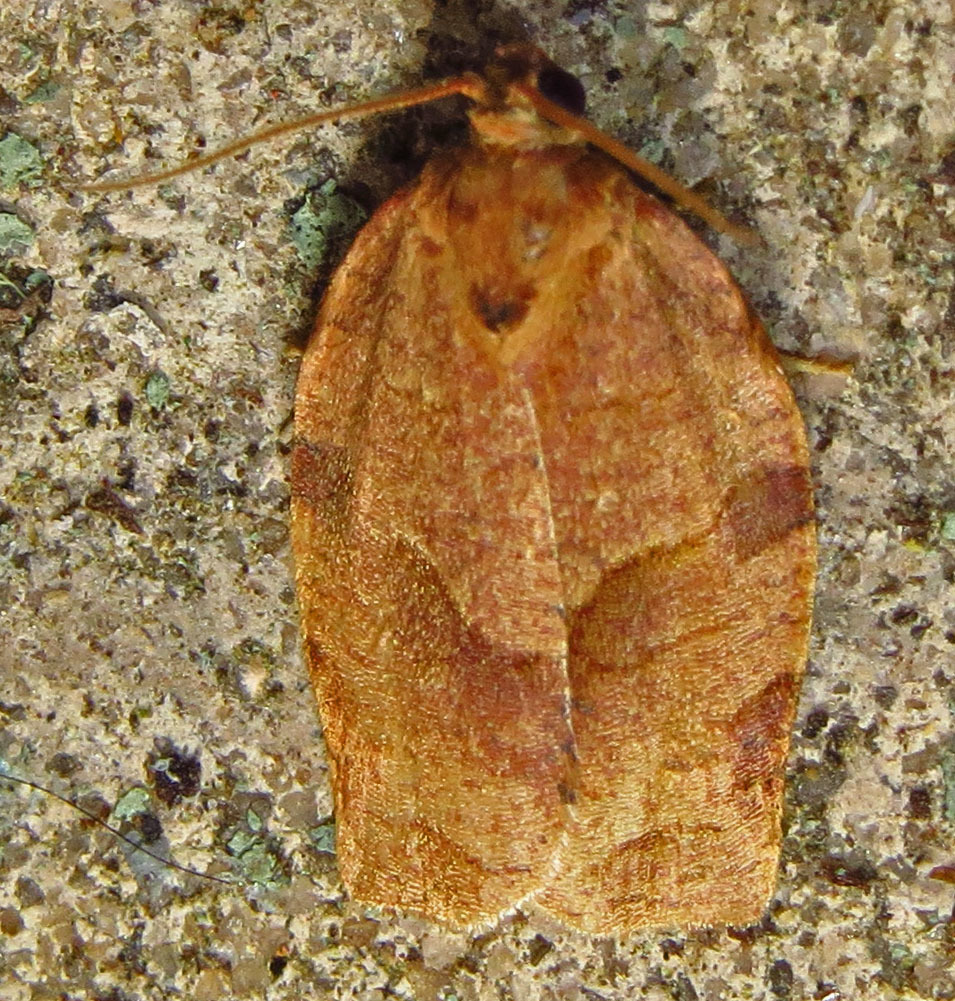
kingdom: Animalia
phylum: Arthropoda
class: Insecta
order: Lepidoptera
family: Tortricidae
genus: Choristoneura
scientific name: Choristoneura rosaceana
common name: Oblique-banded leafroller moth
